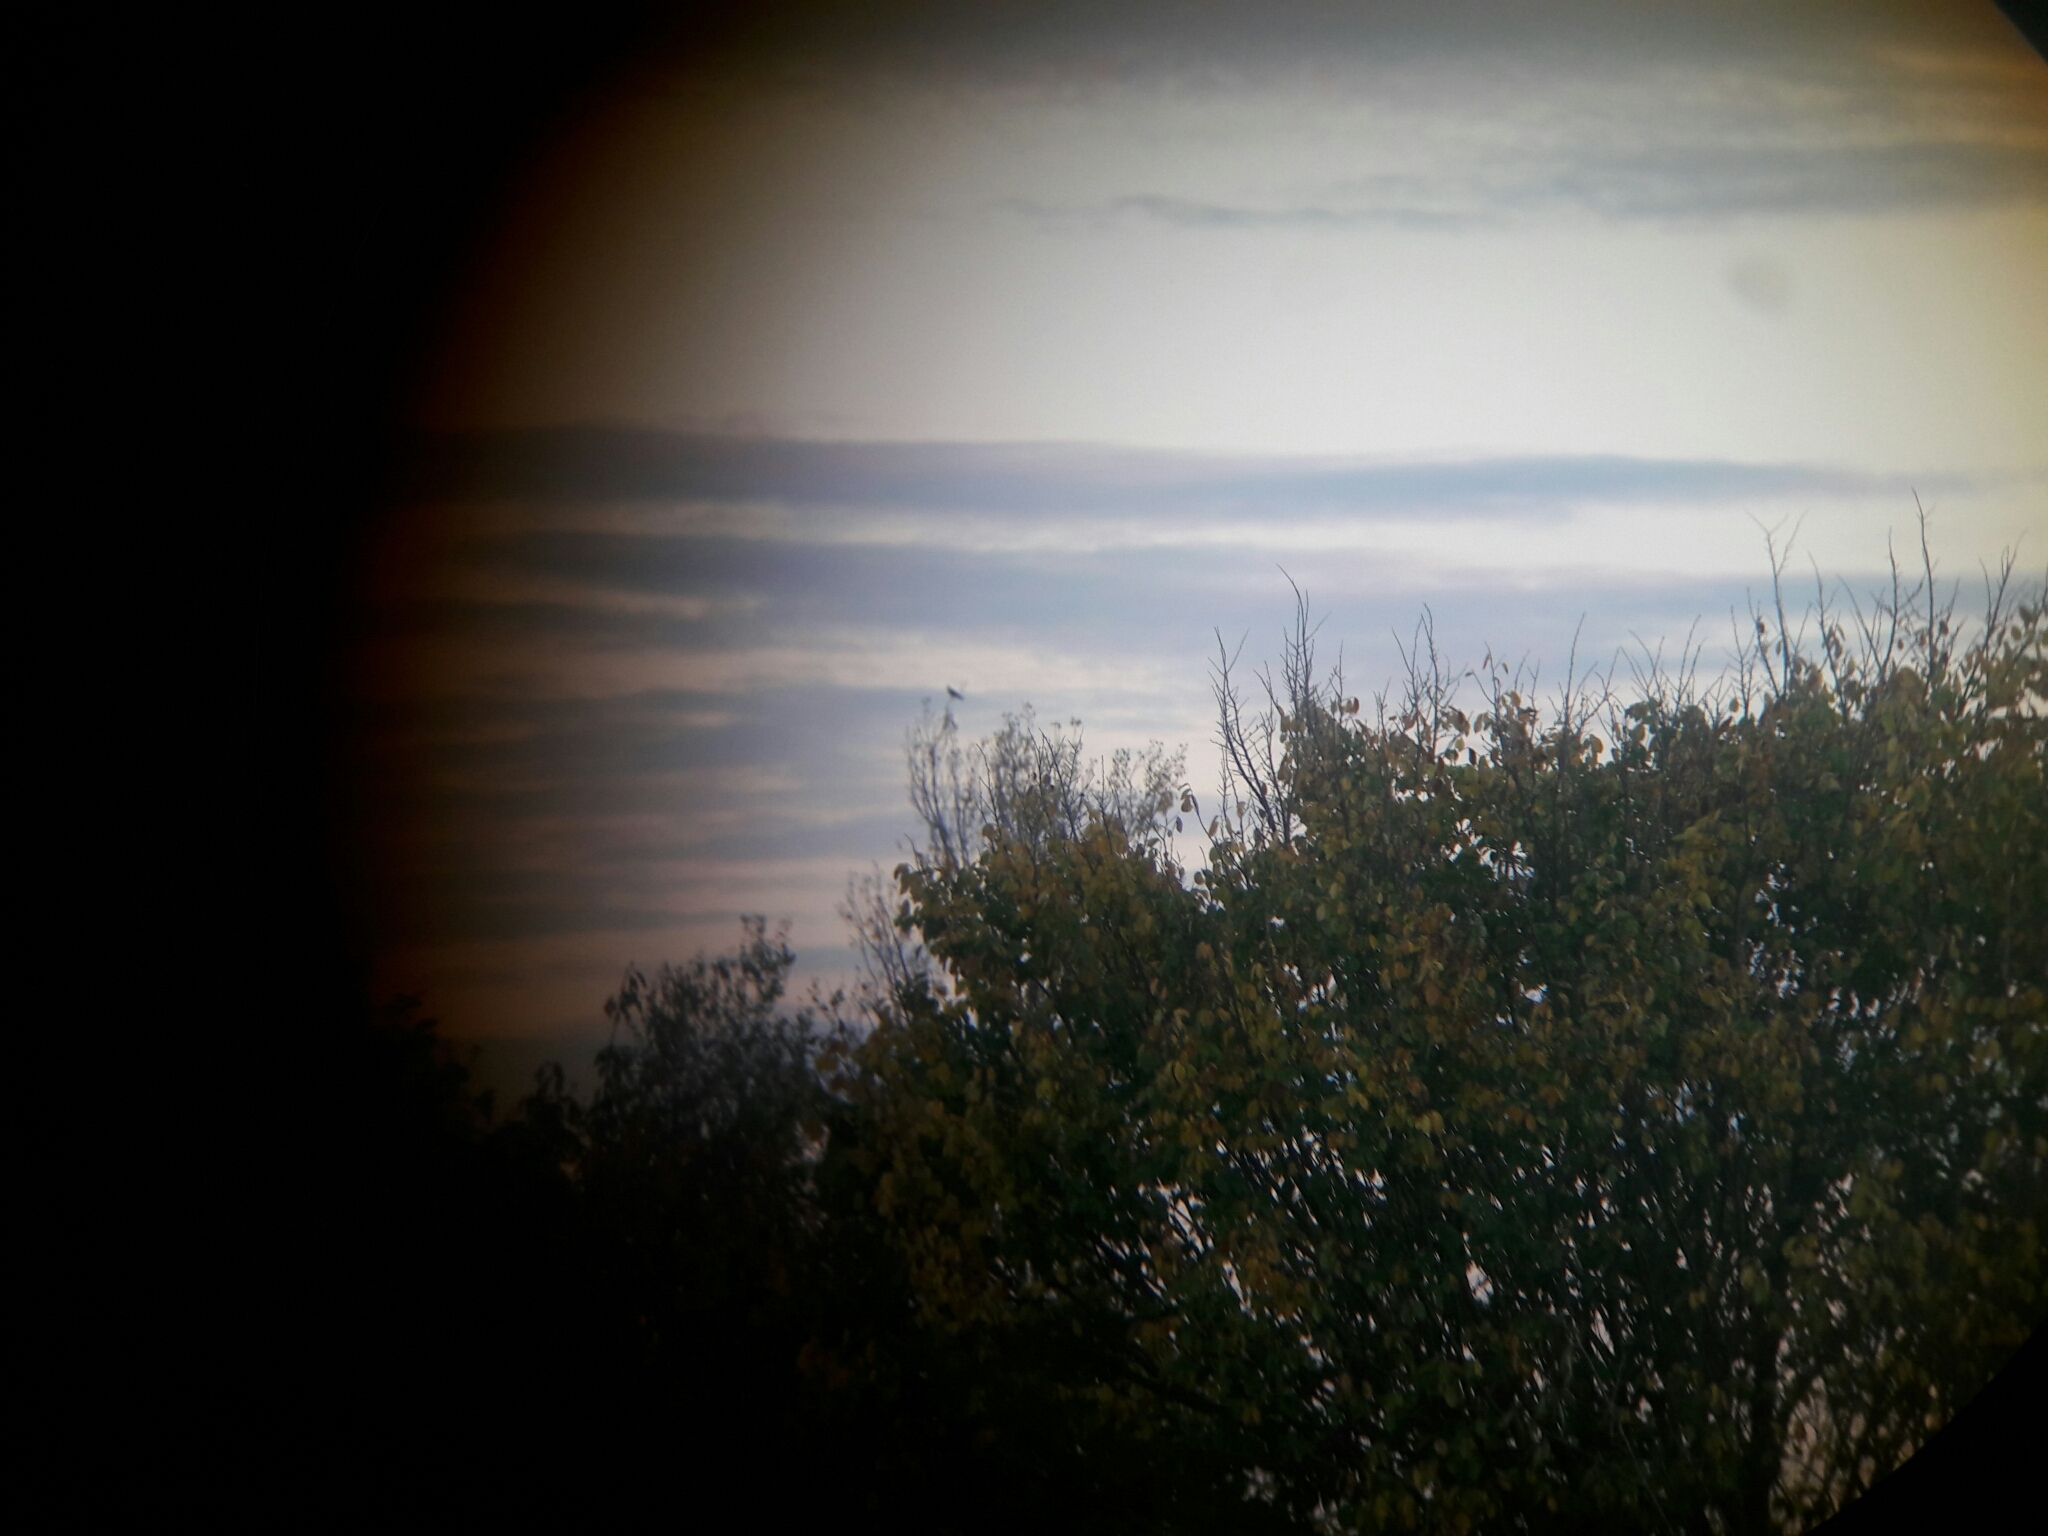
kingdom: Animalia
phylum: Chordata
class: Aves
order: Accipitriformes
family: Accipitridae
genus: Elanus
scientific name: Elanus caeruleus
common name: Black-winged kite
